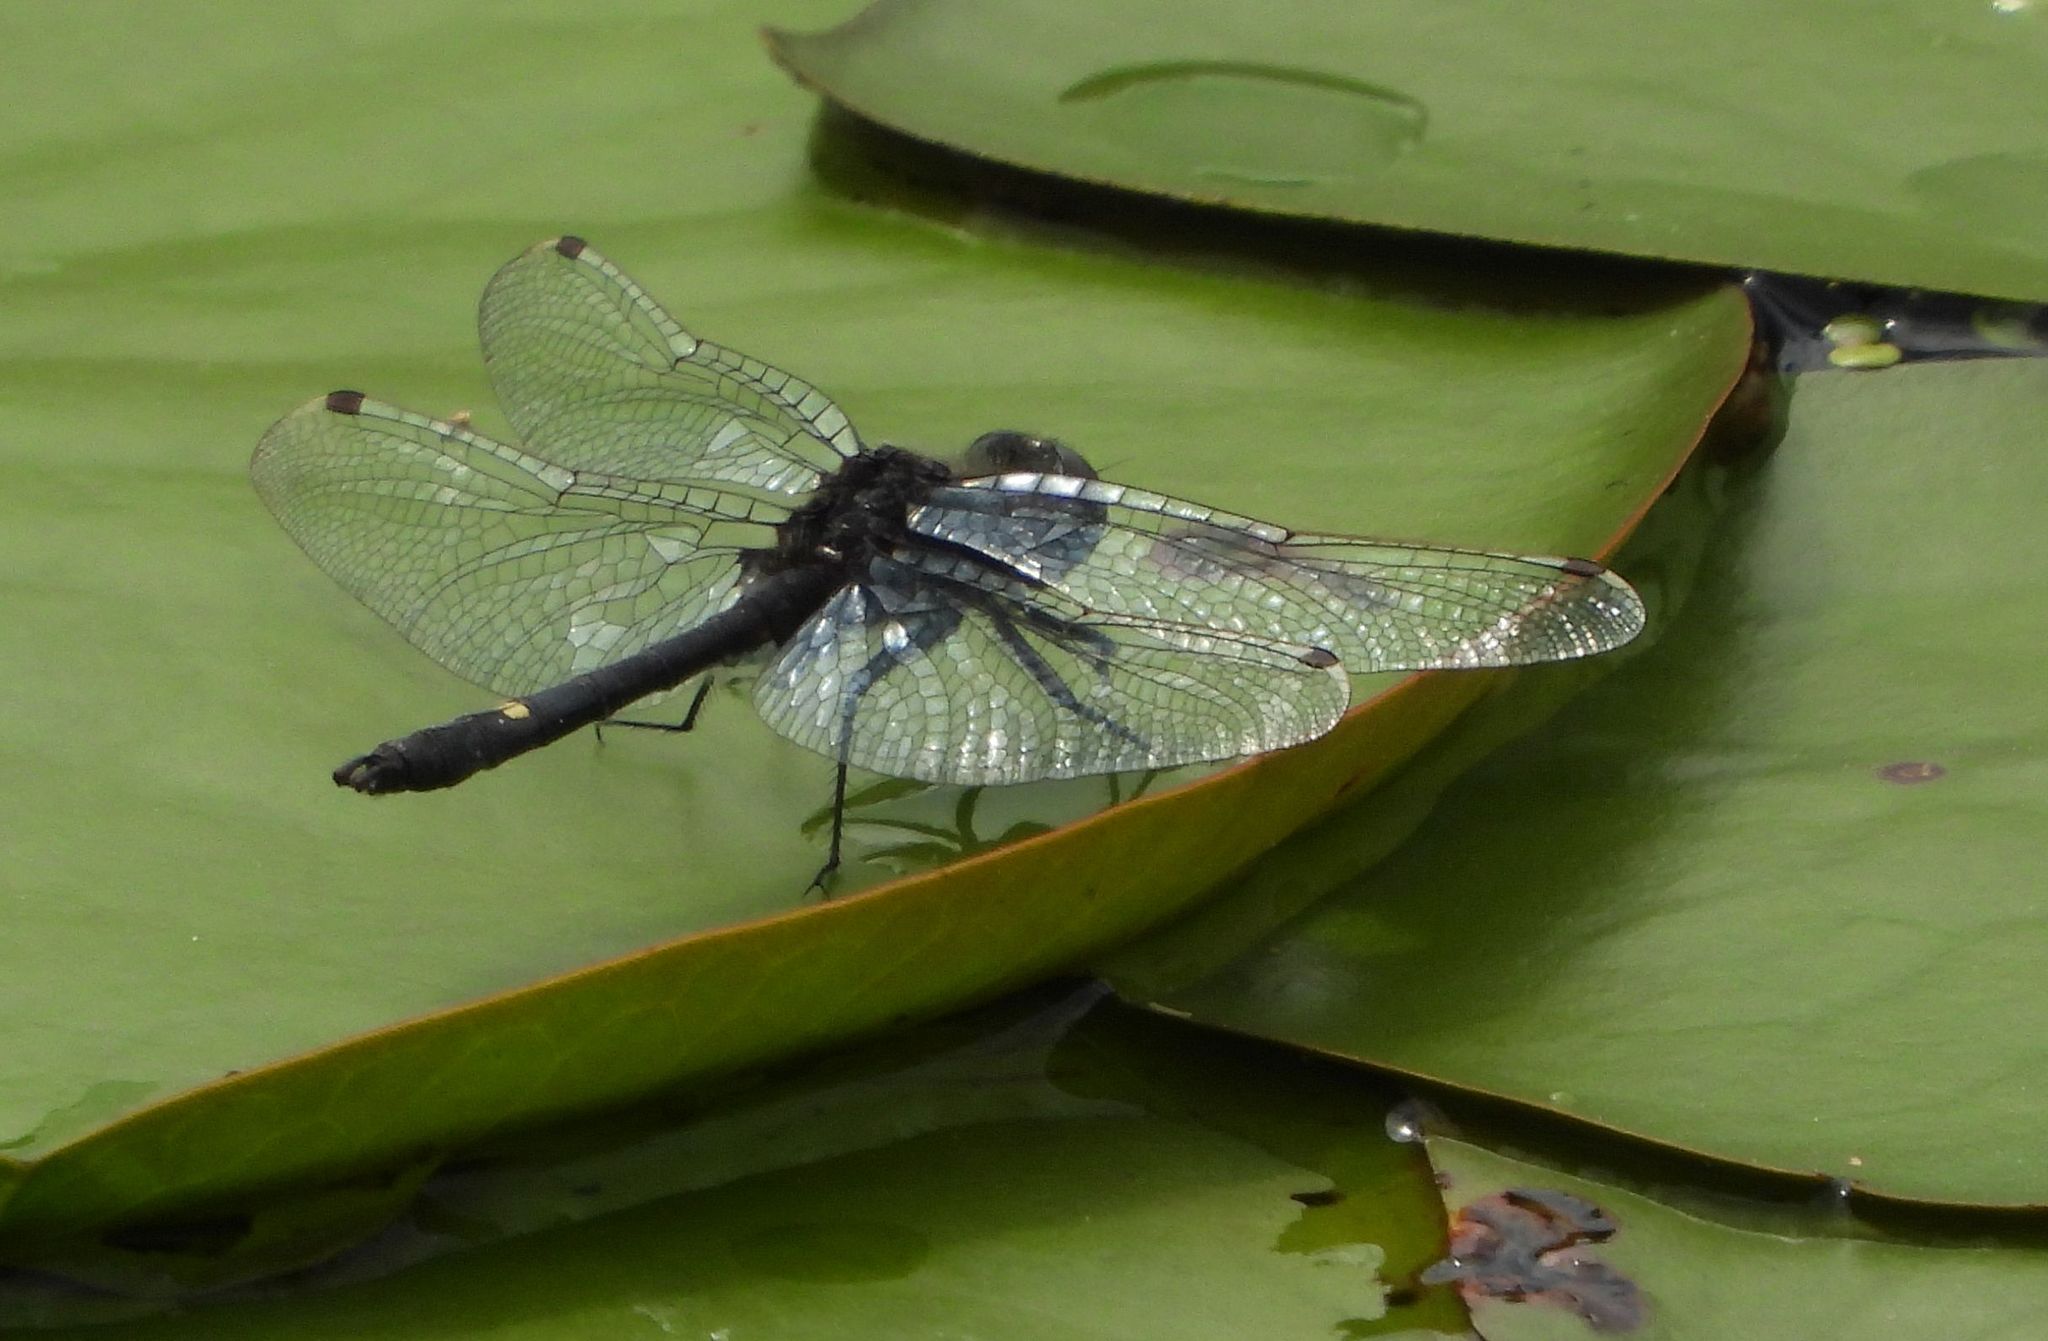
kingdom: Animalia
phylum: Arthropoda
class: Insecta
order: Odonata
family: Libellulidae
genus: Leucorrhinia
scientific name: Leucorrhinia intacta
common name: Dot-tailed whiteface
